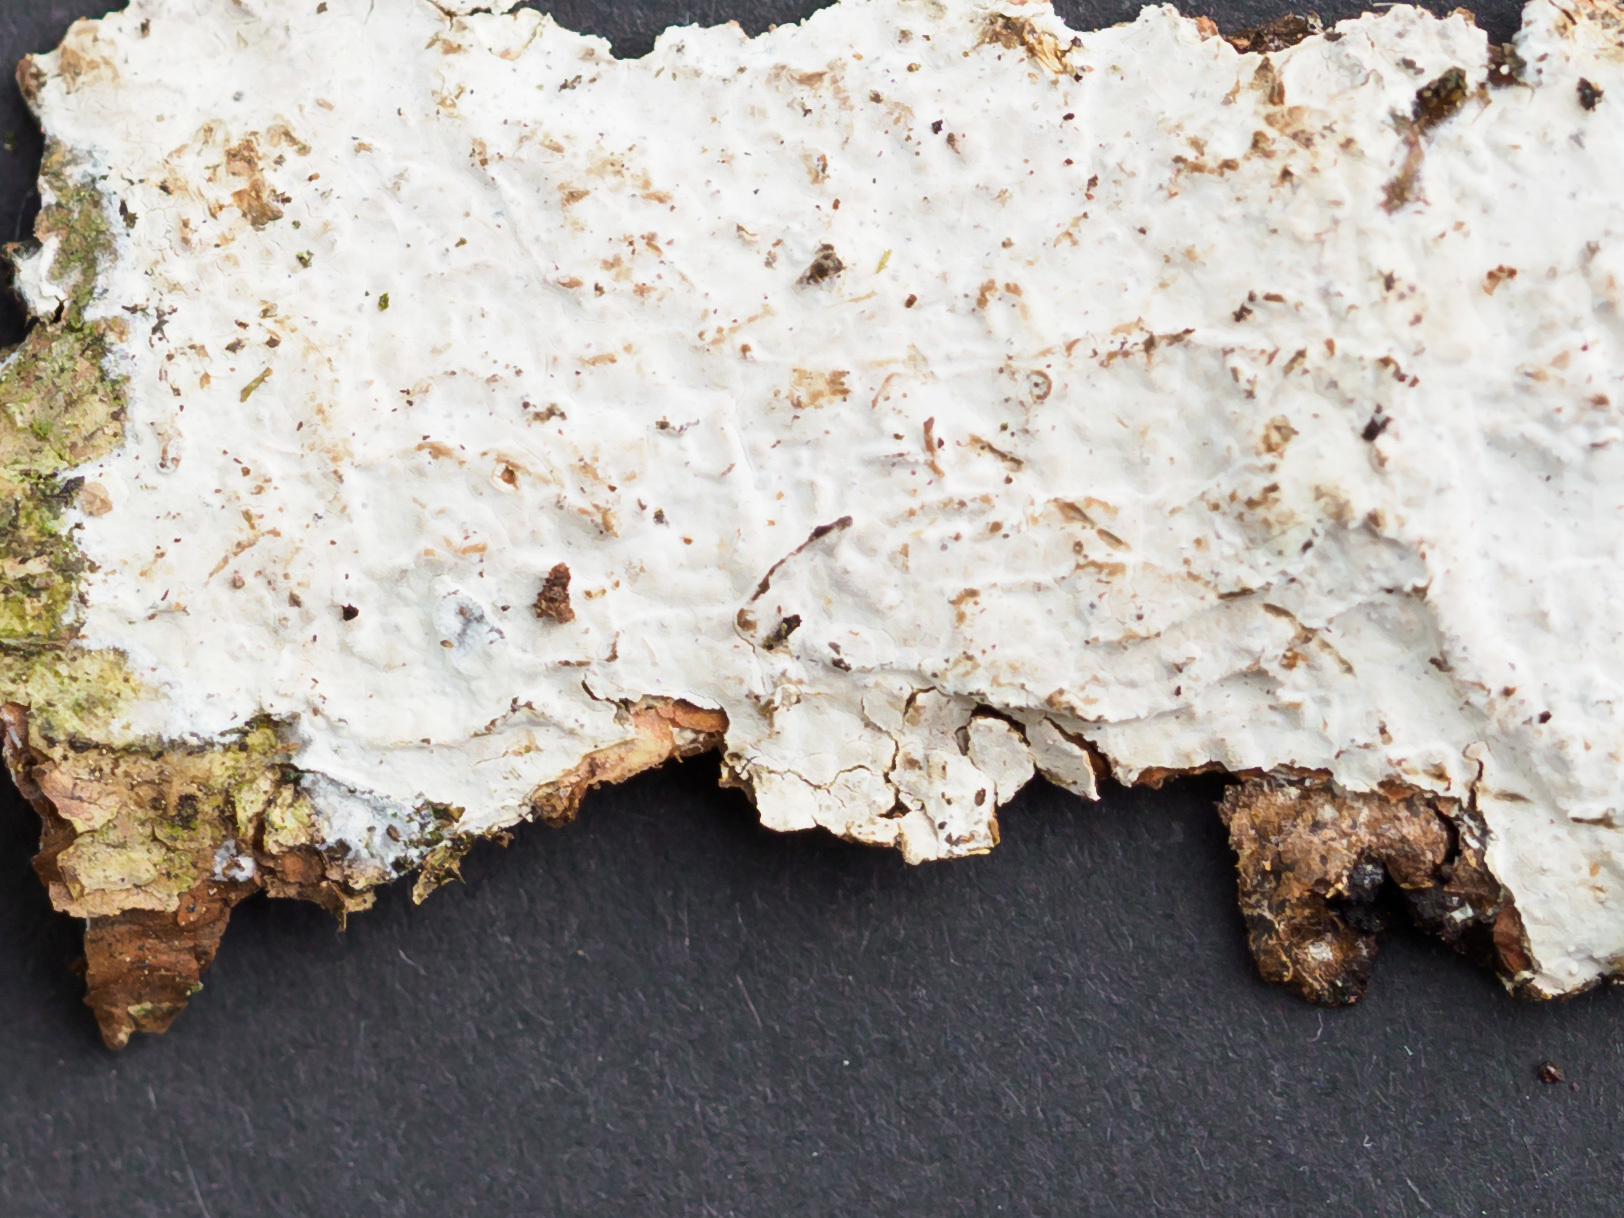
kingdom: Fungi
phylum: Basidiomycota
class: Agaricomycetes
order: Auriculariales
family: Auriculariaceae
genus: Alloexidiopsis
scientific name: Alloexidiopsis calcea
